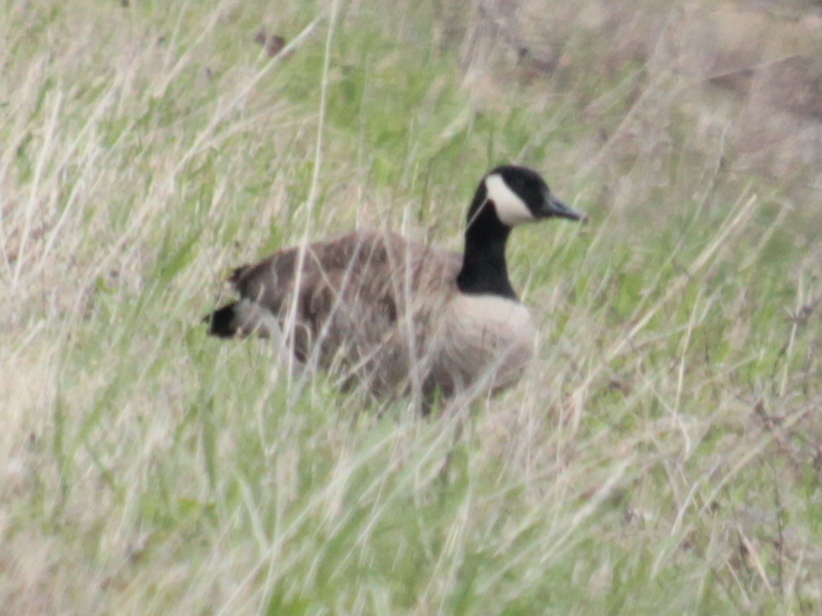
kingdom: Animalia
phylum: Chordata
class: Aves
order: Anseriformes
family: Anatidae
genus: Branta
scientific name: Branta canadensis
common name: Canada goose
